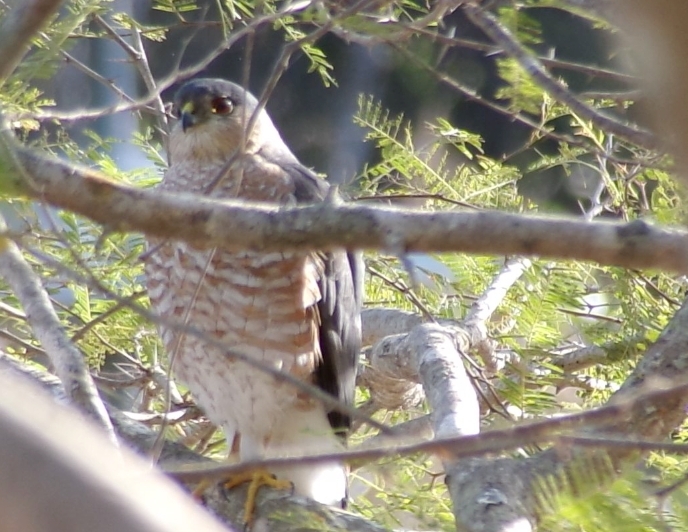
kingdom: Animalia
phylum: Chordata
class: Aves
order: Accipitriformes
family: Accipitridae
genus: Accipiter
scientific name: Accipiter striatus
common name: Sharp-shinned hawk
